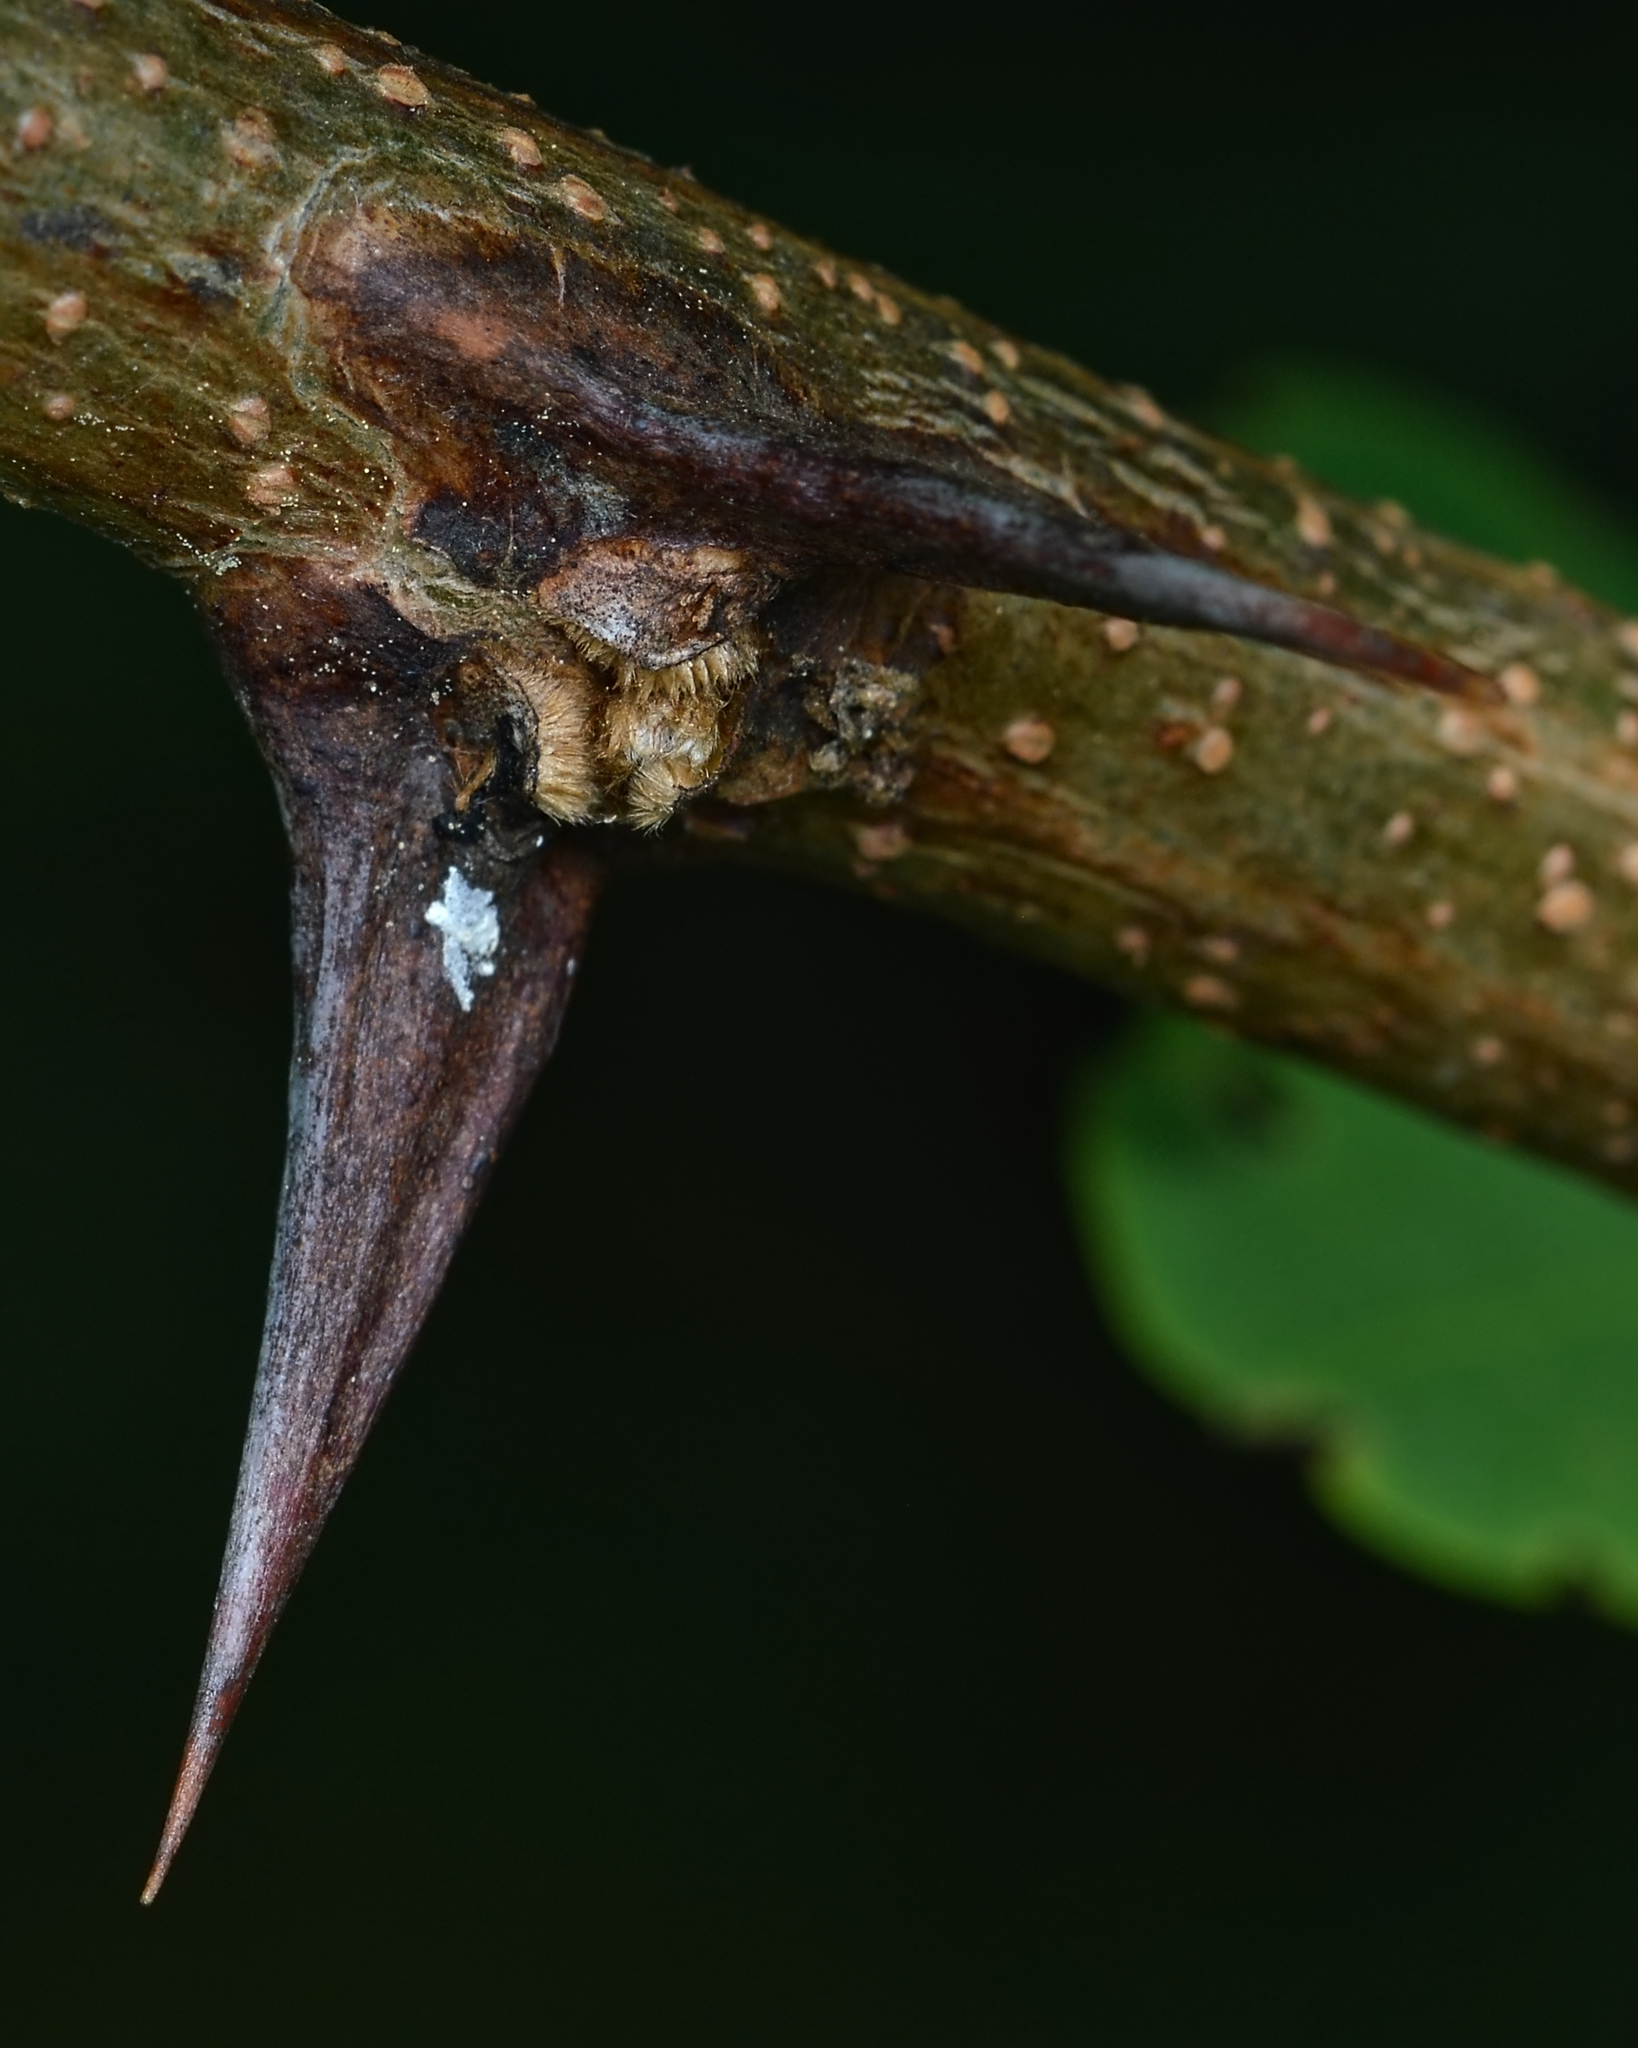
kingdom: Plantae
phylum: Tracheophyta
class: Magnoliopsida
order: Fabales
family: Fabaceae
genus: Robinia
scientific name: Robinia pseudoacacia
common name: Black locust
